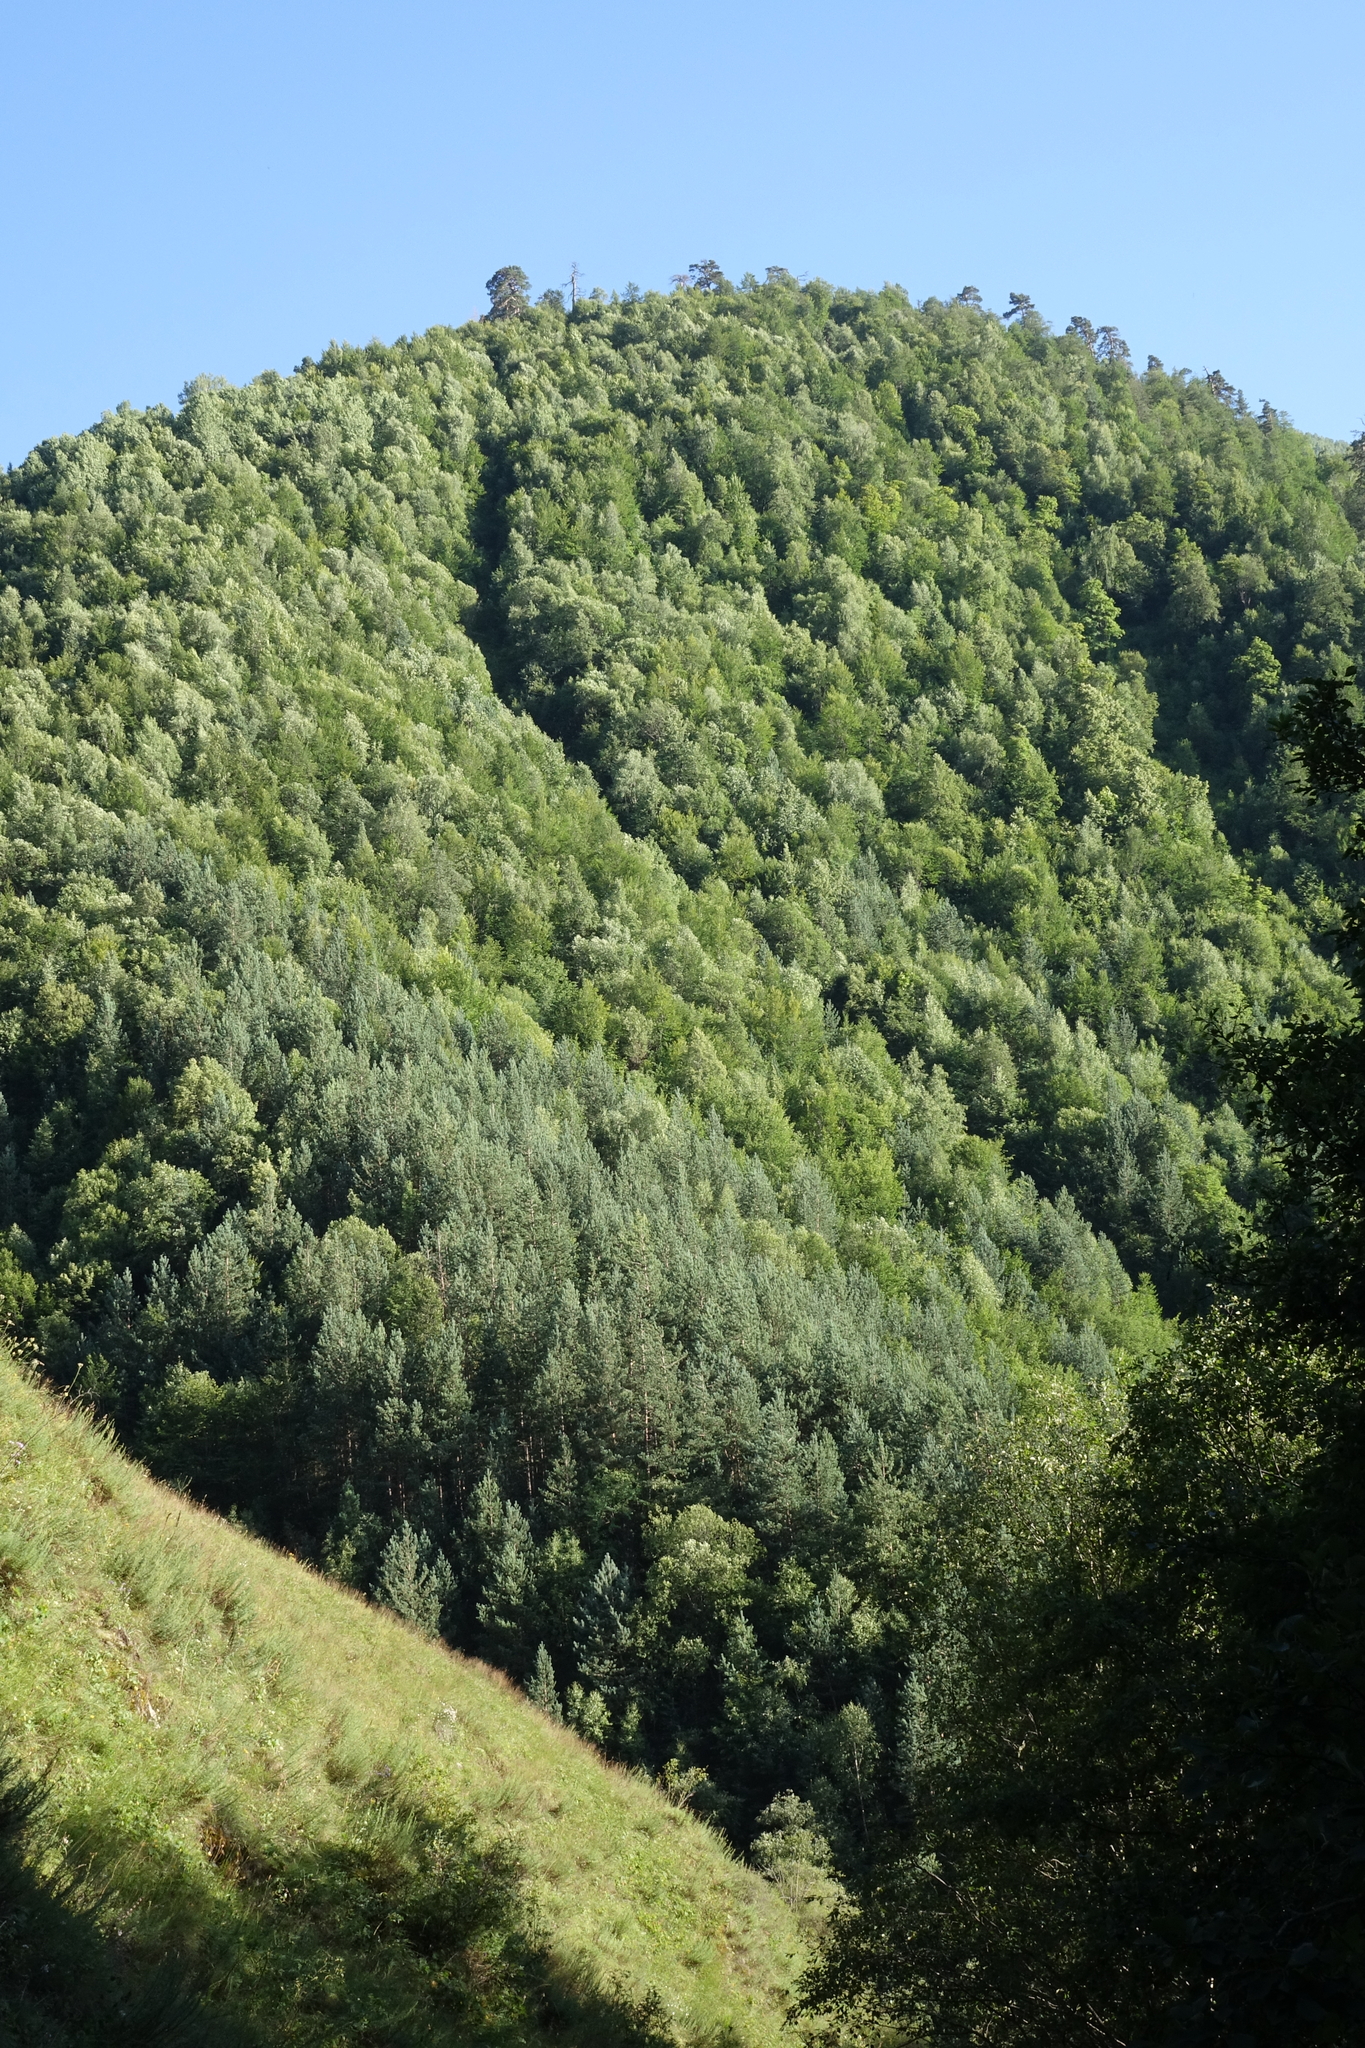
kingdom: Plantae
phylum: Tracheophyta
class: Pinopsida
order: Pinales
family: Pinaceae
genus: Pinus
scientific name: Pinus sylvestris
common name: Scots pine
